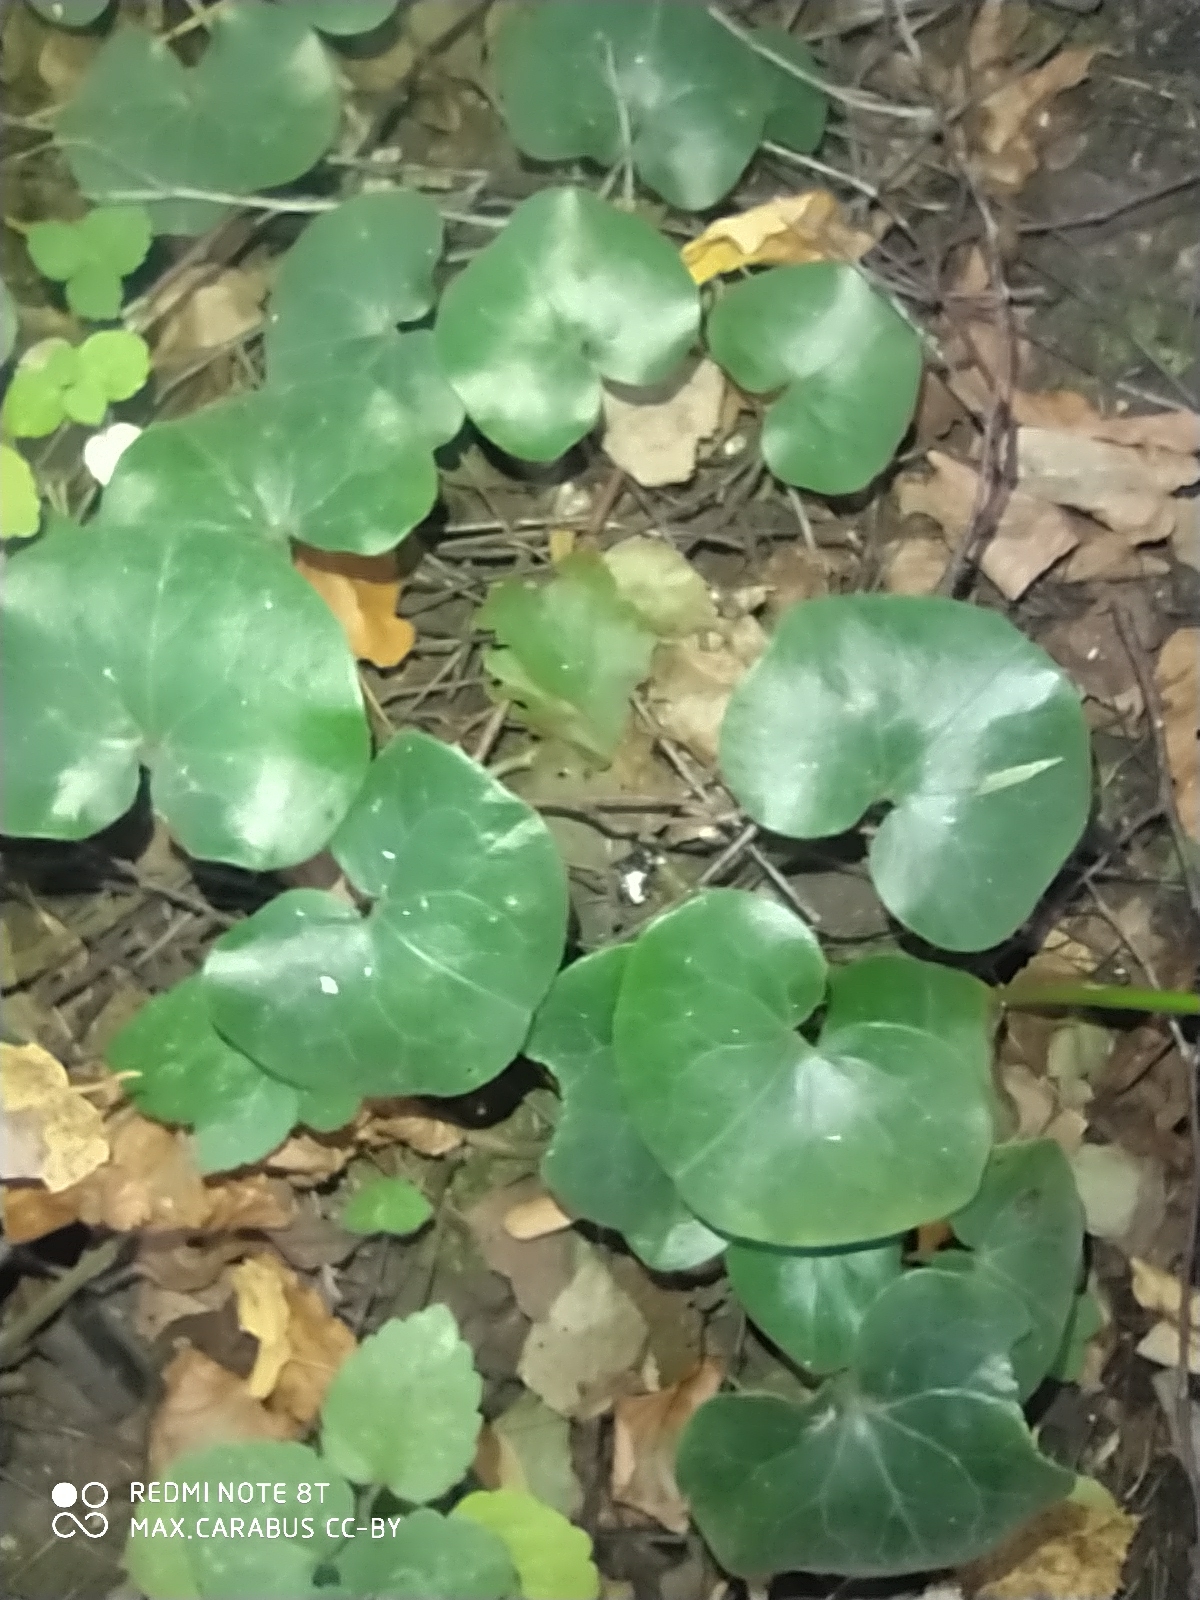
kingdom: Plantae
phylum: Tracheophyta
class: Magnoliopsida
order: Piperales
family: Aristolochiaceae
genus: Asarum
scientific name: Asarum europaeum
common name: Asarabacca
